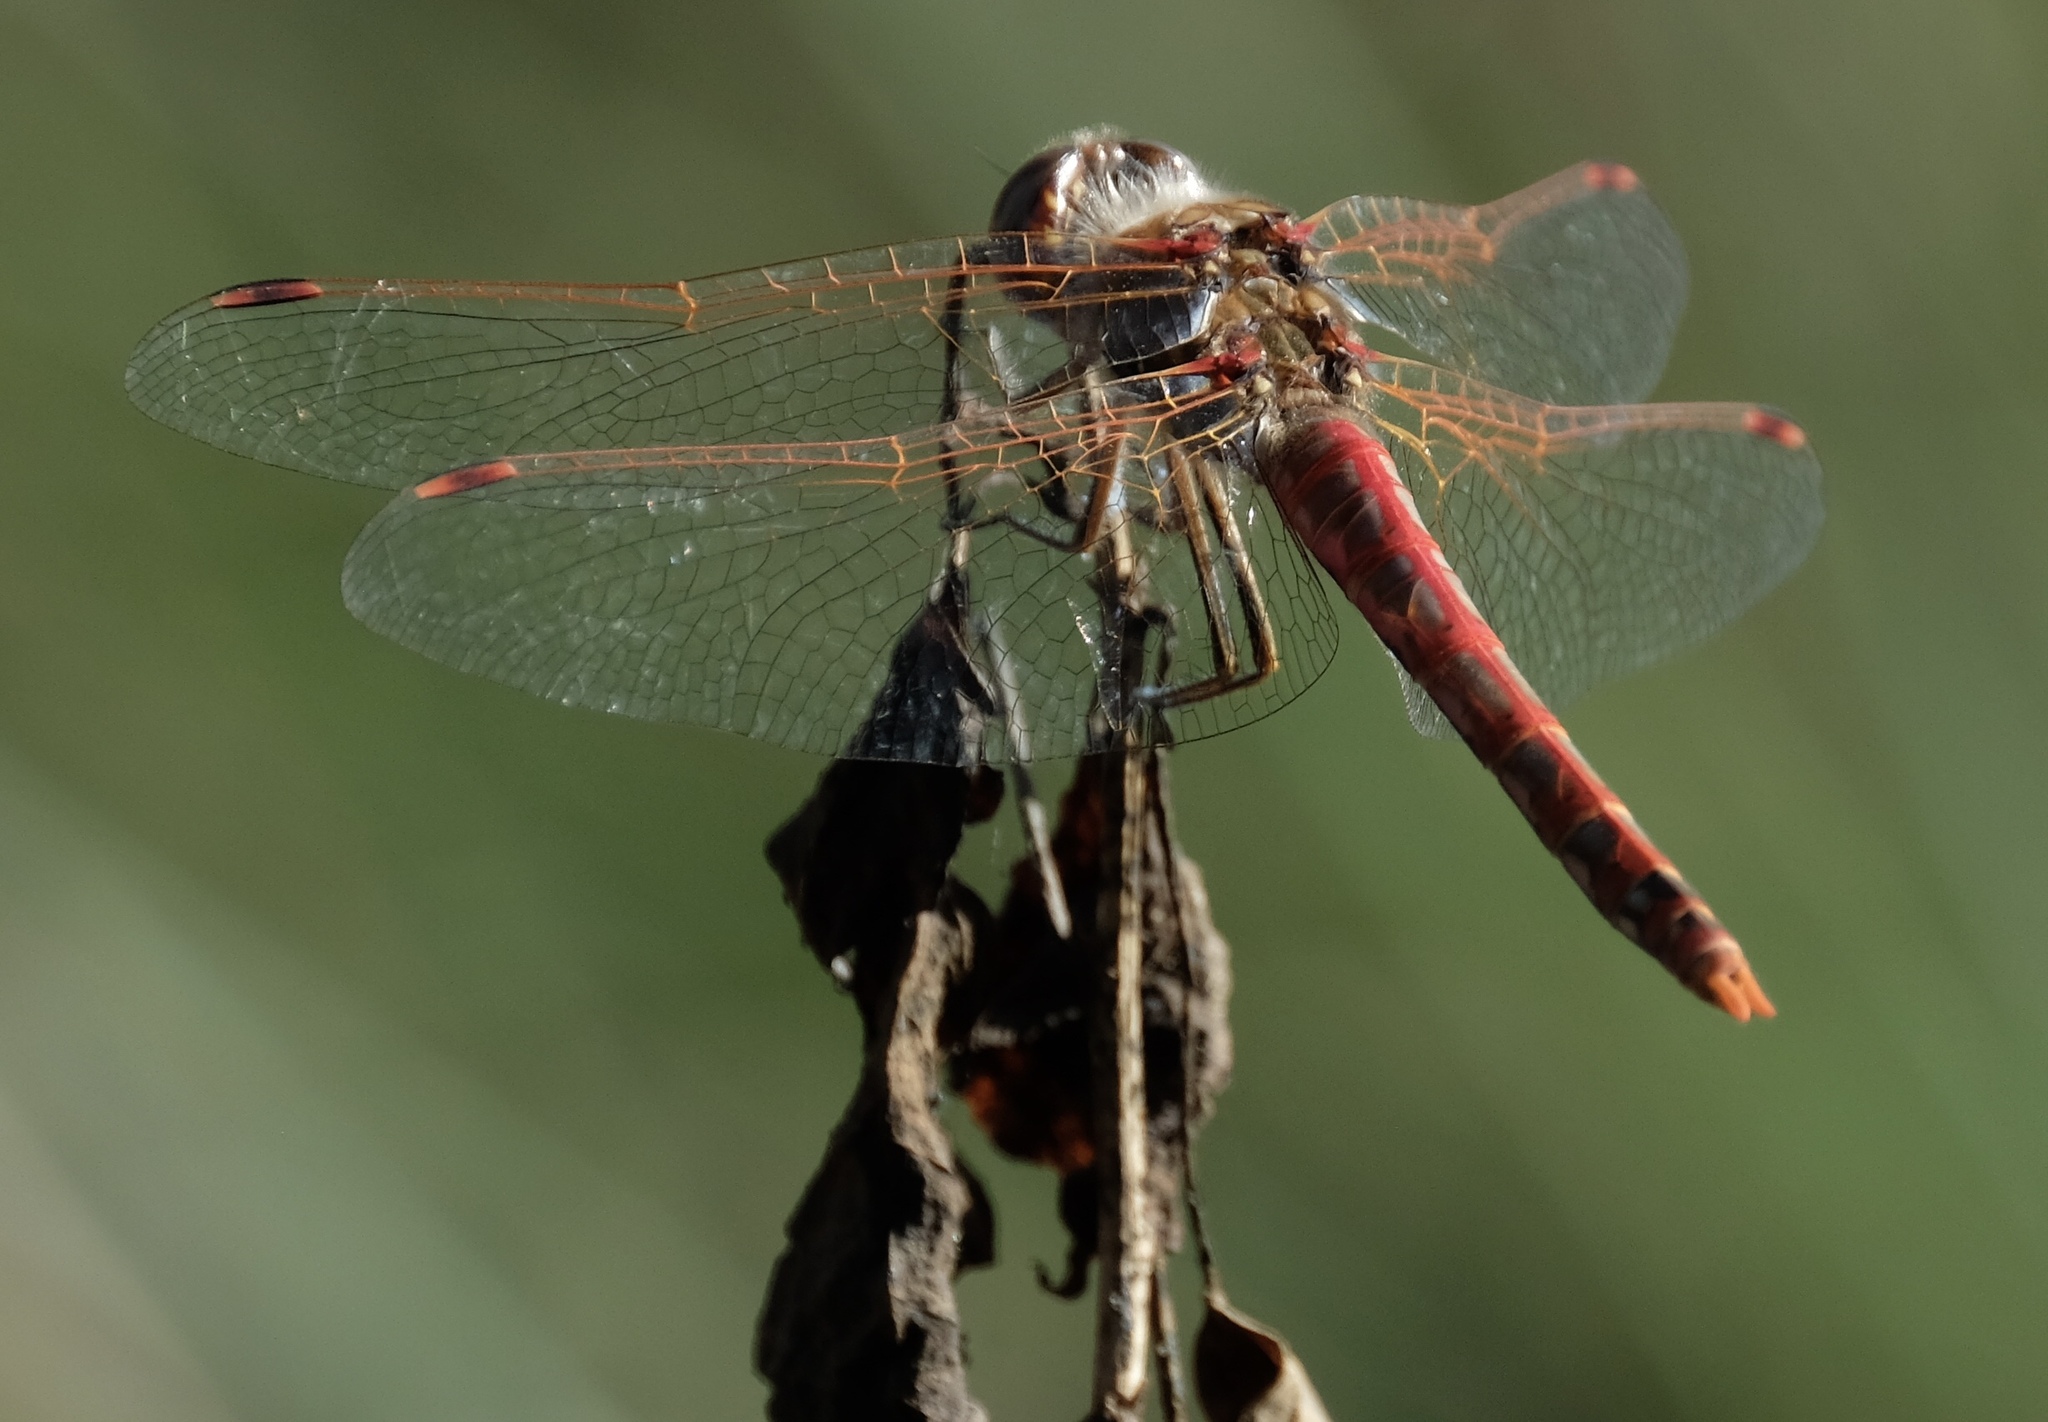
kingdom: Animalia
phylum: Arthropoda
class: Insecta
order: Odonata
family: Libellulidae
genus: Sympetrum
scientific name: Sympetrum corruptum
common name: Variegated meadowhawk
